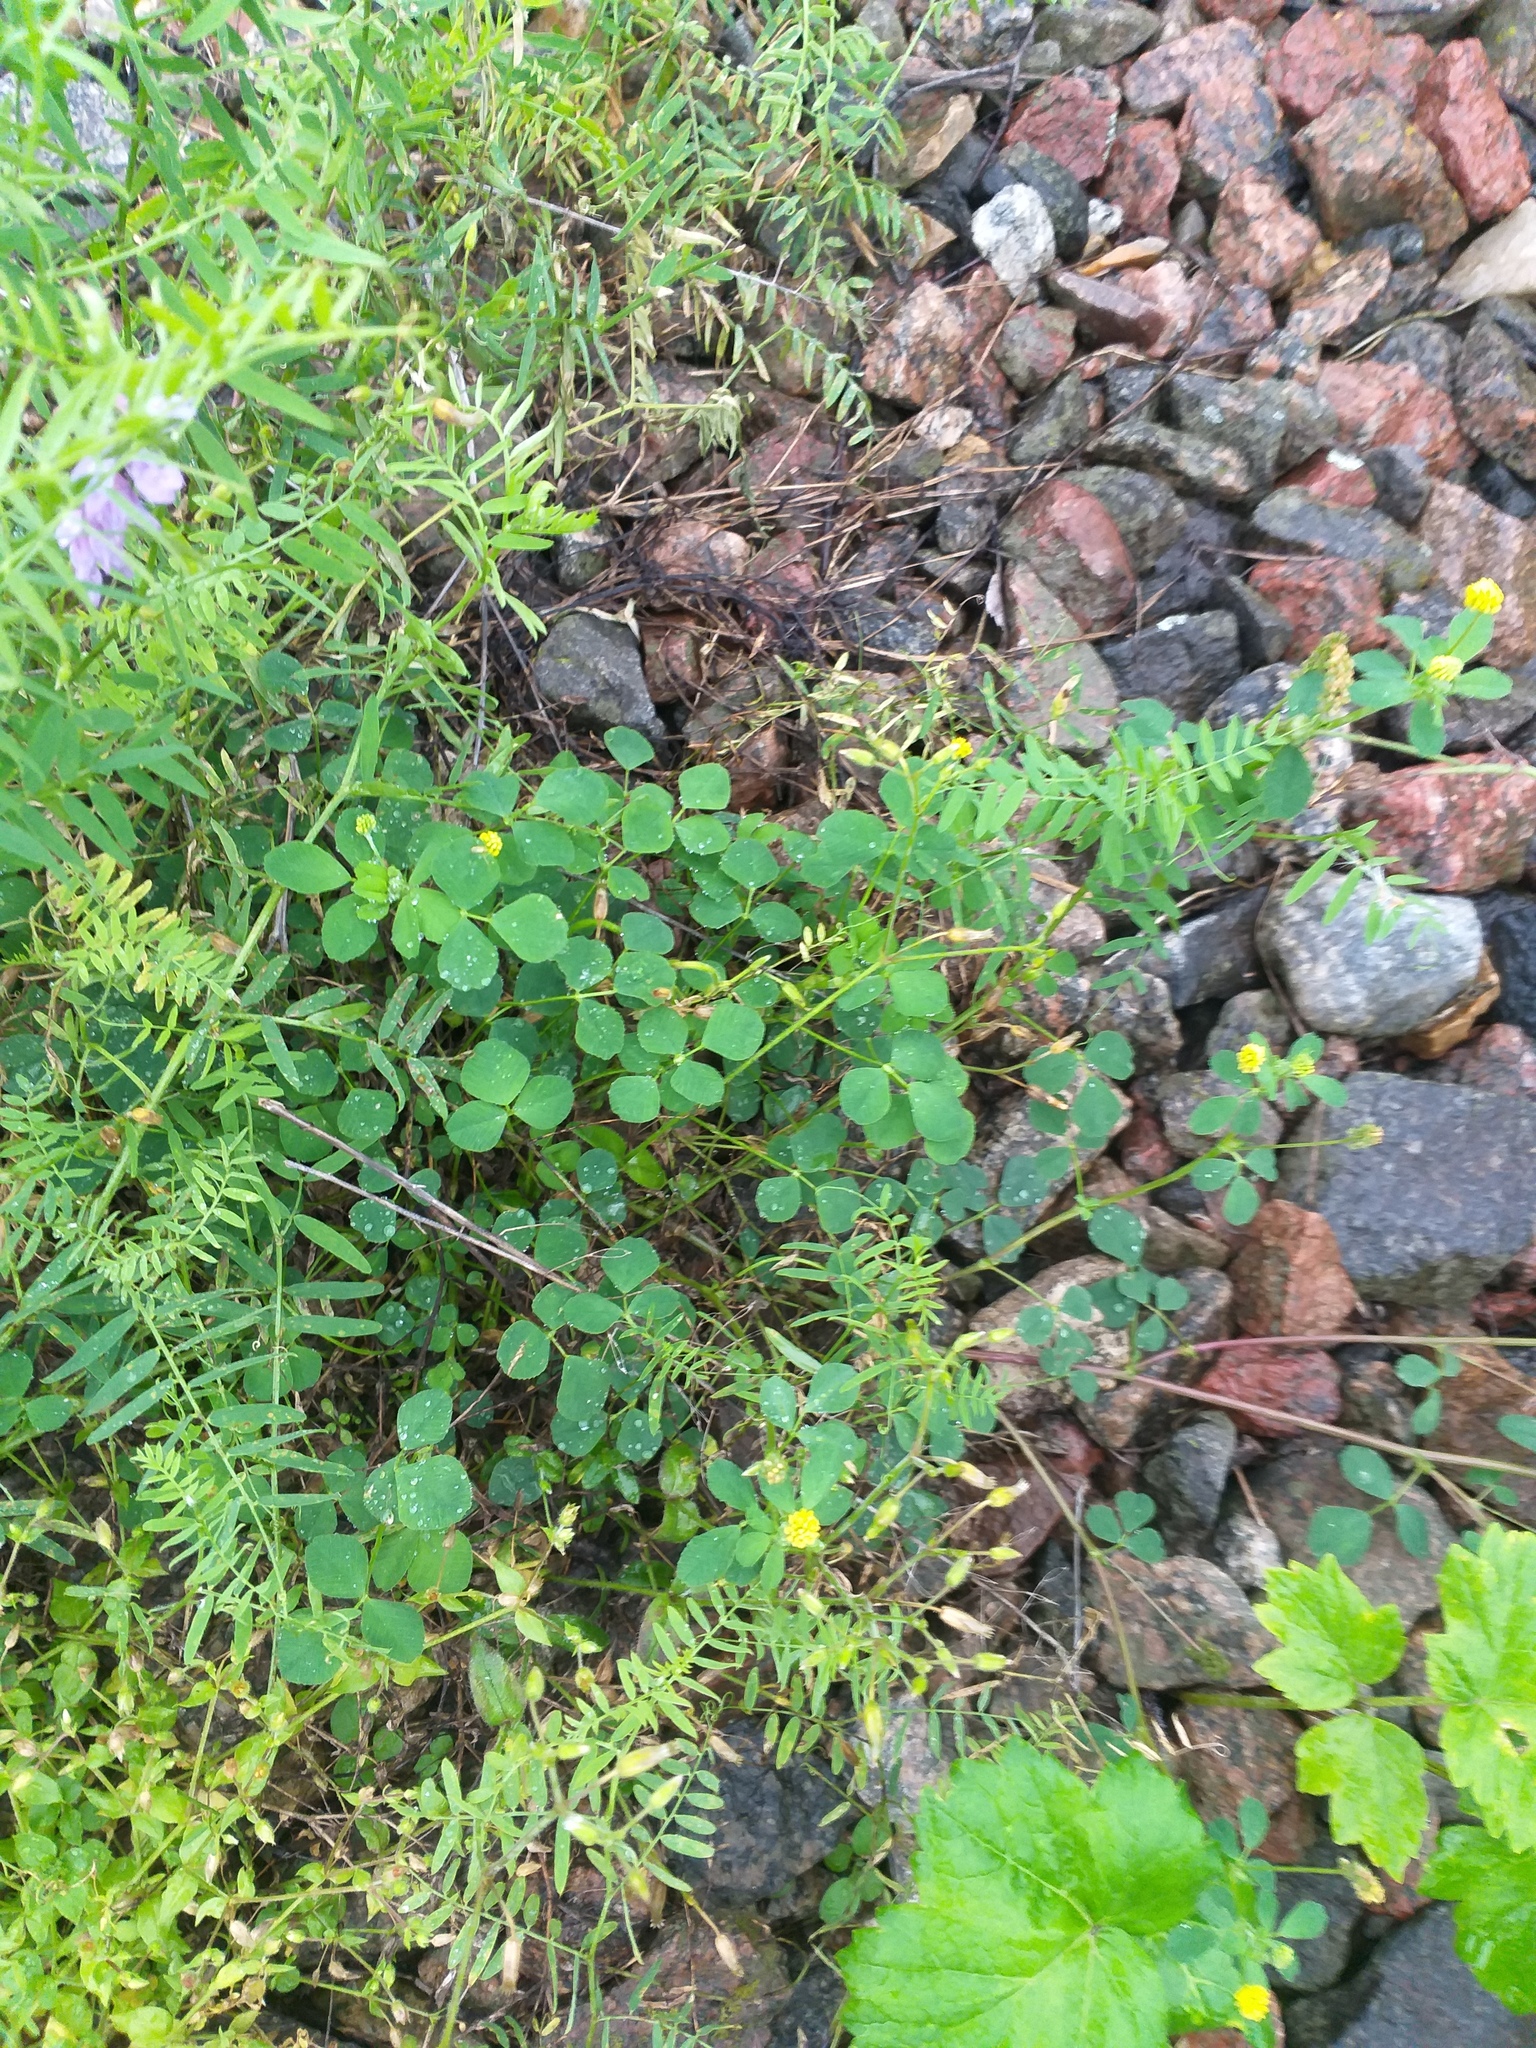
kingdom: Plantae
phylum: Tracheophyta
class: Magnoliopsida
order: Fabales
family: Fabaceae
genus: Medicago
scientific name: Medicago lupulina
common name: Black medick
